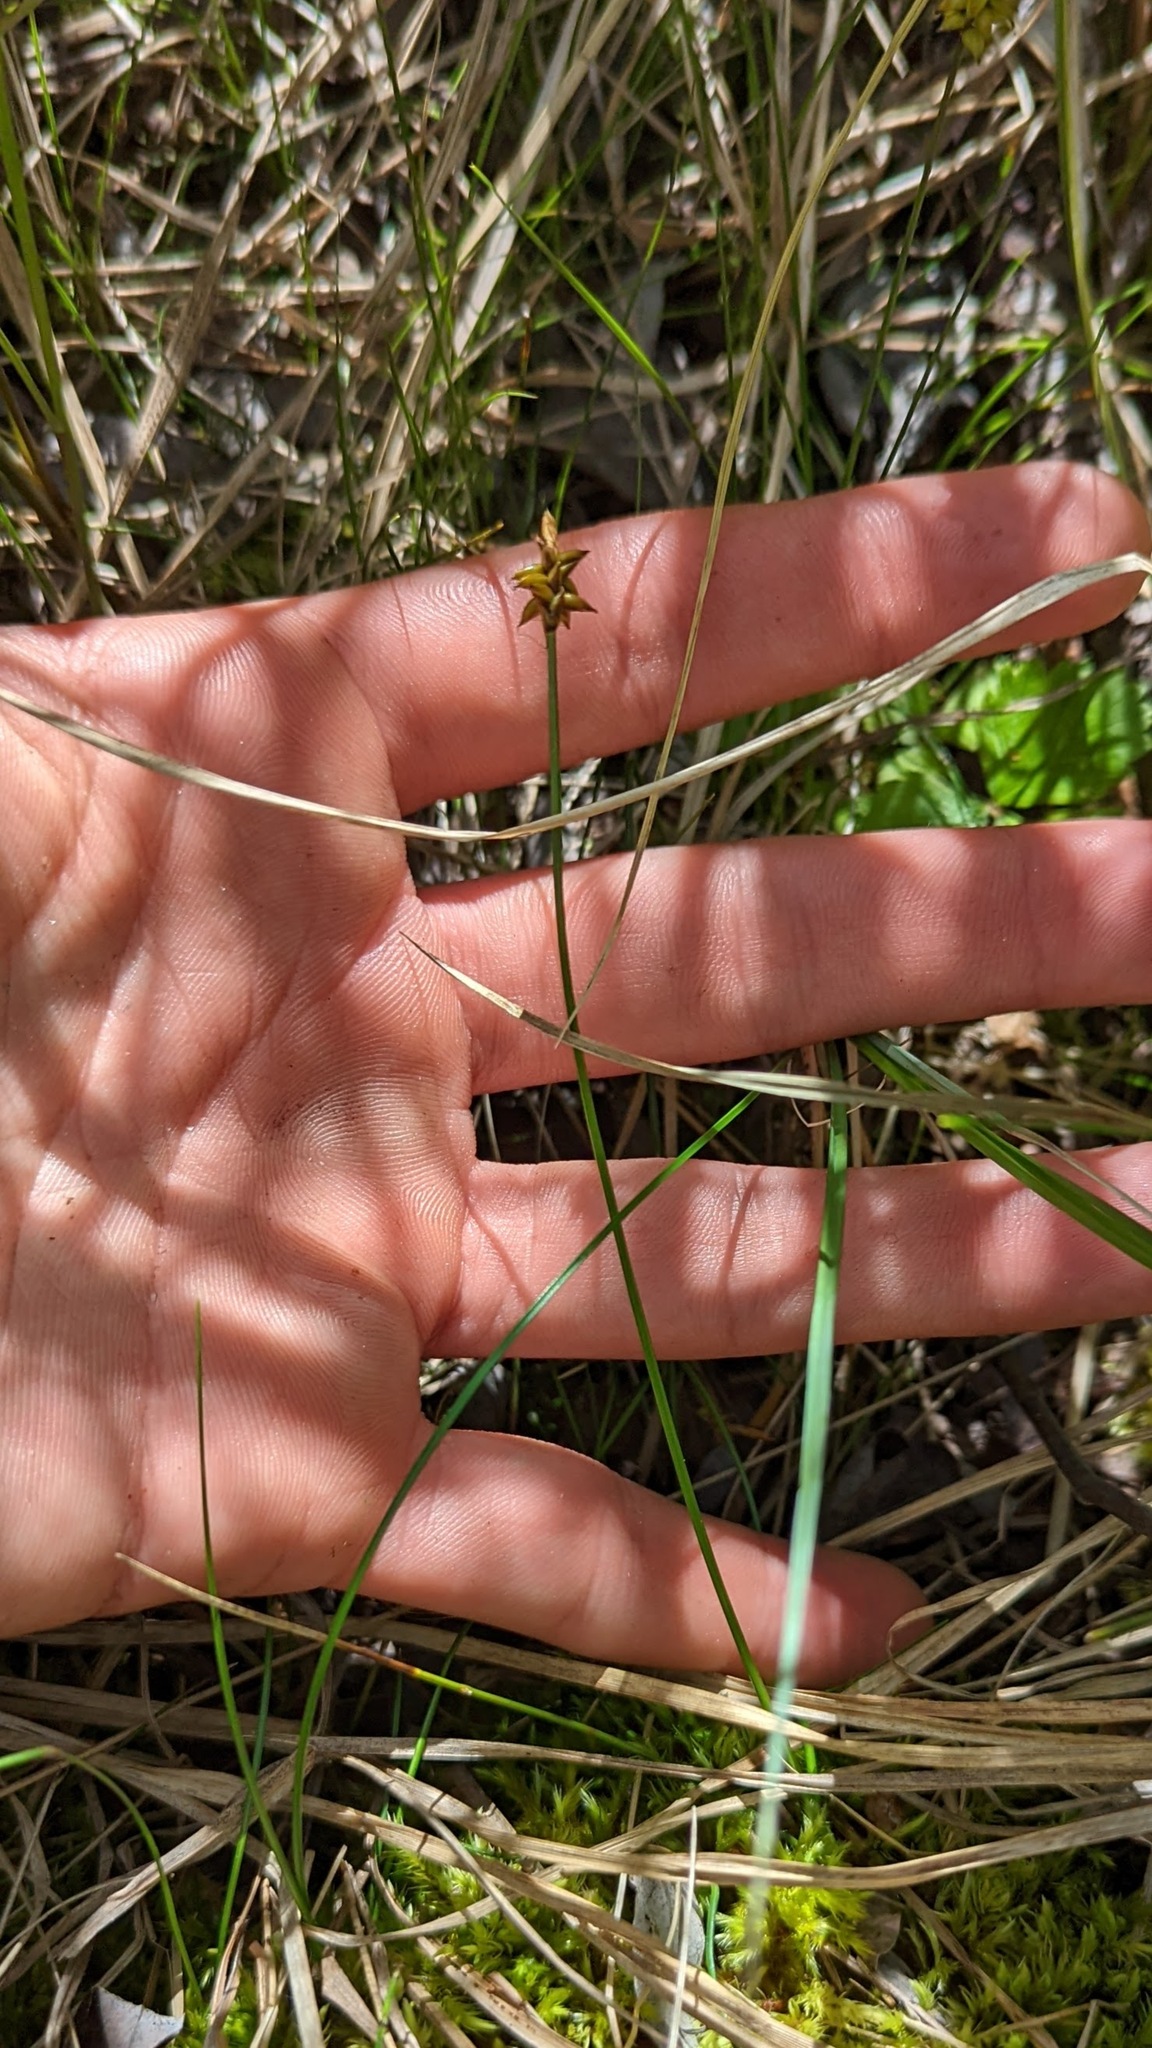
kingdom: Plantae
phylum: Tracheophyta
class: Liliopsida
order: Poales
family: Cyperaceae
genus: Carex
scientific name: Carex alascana
